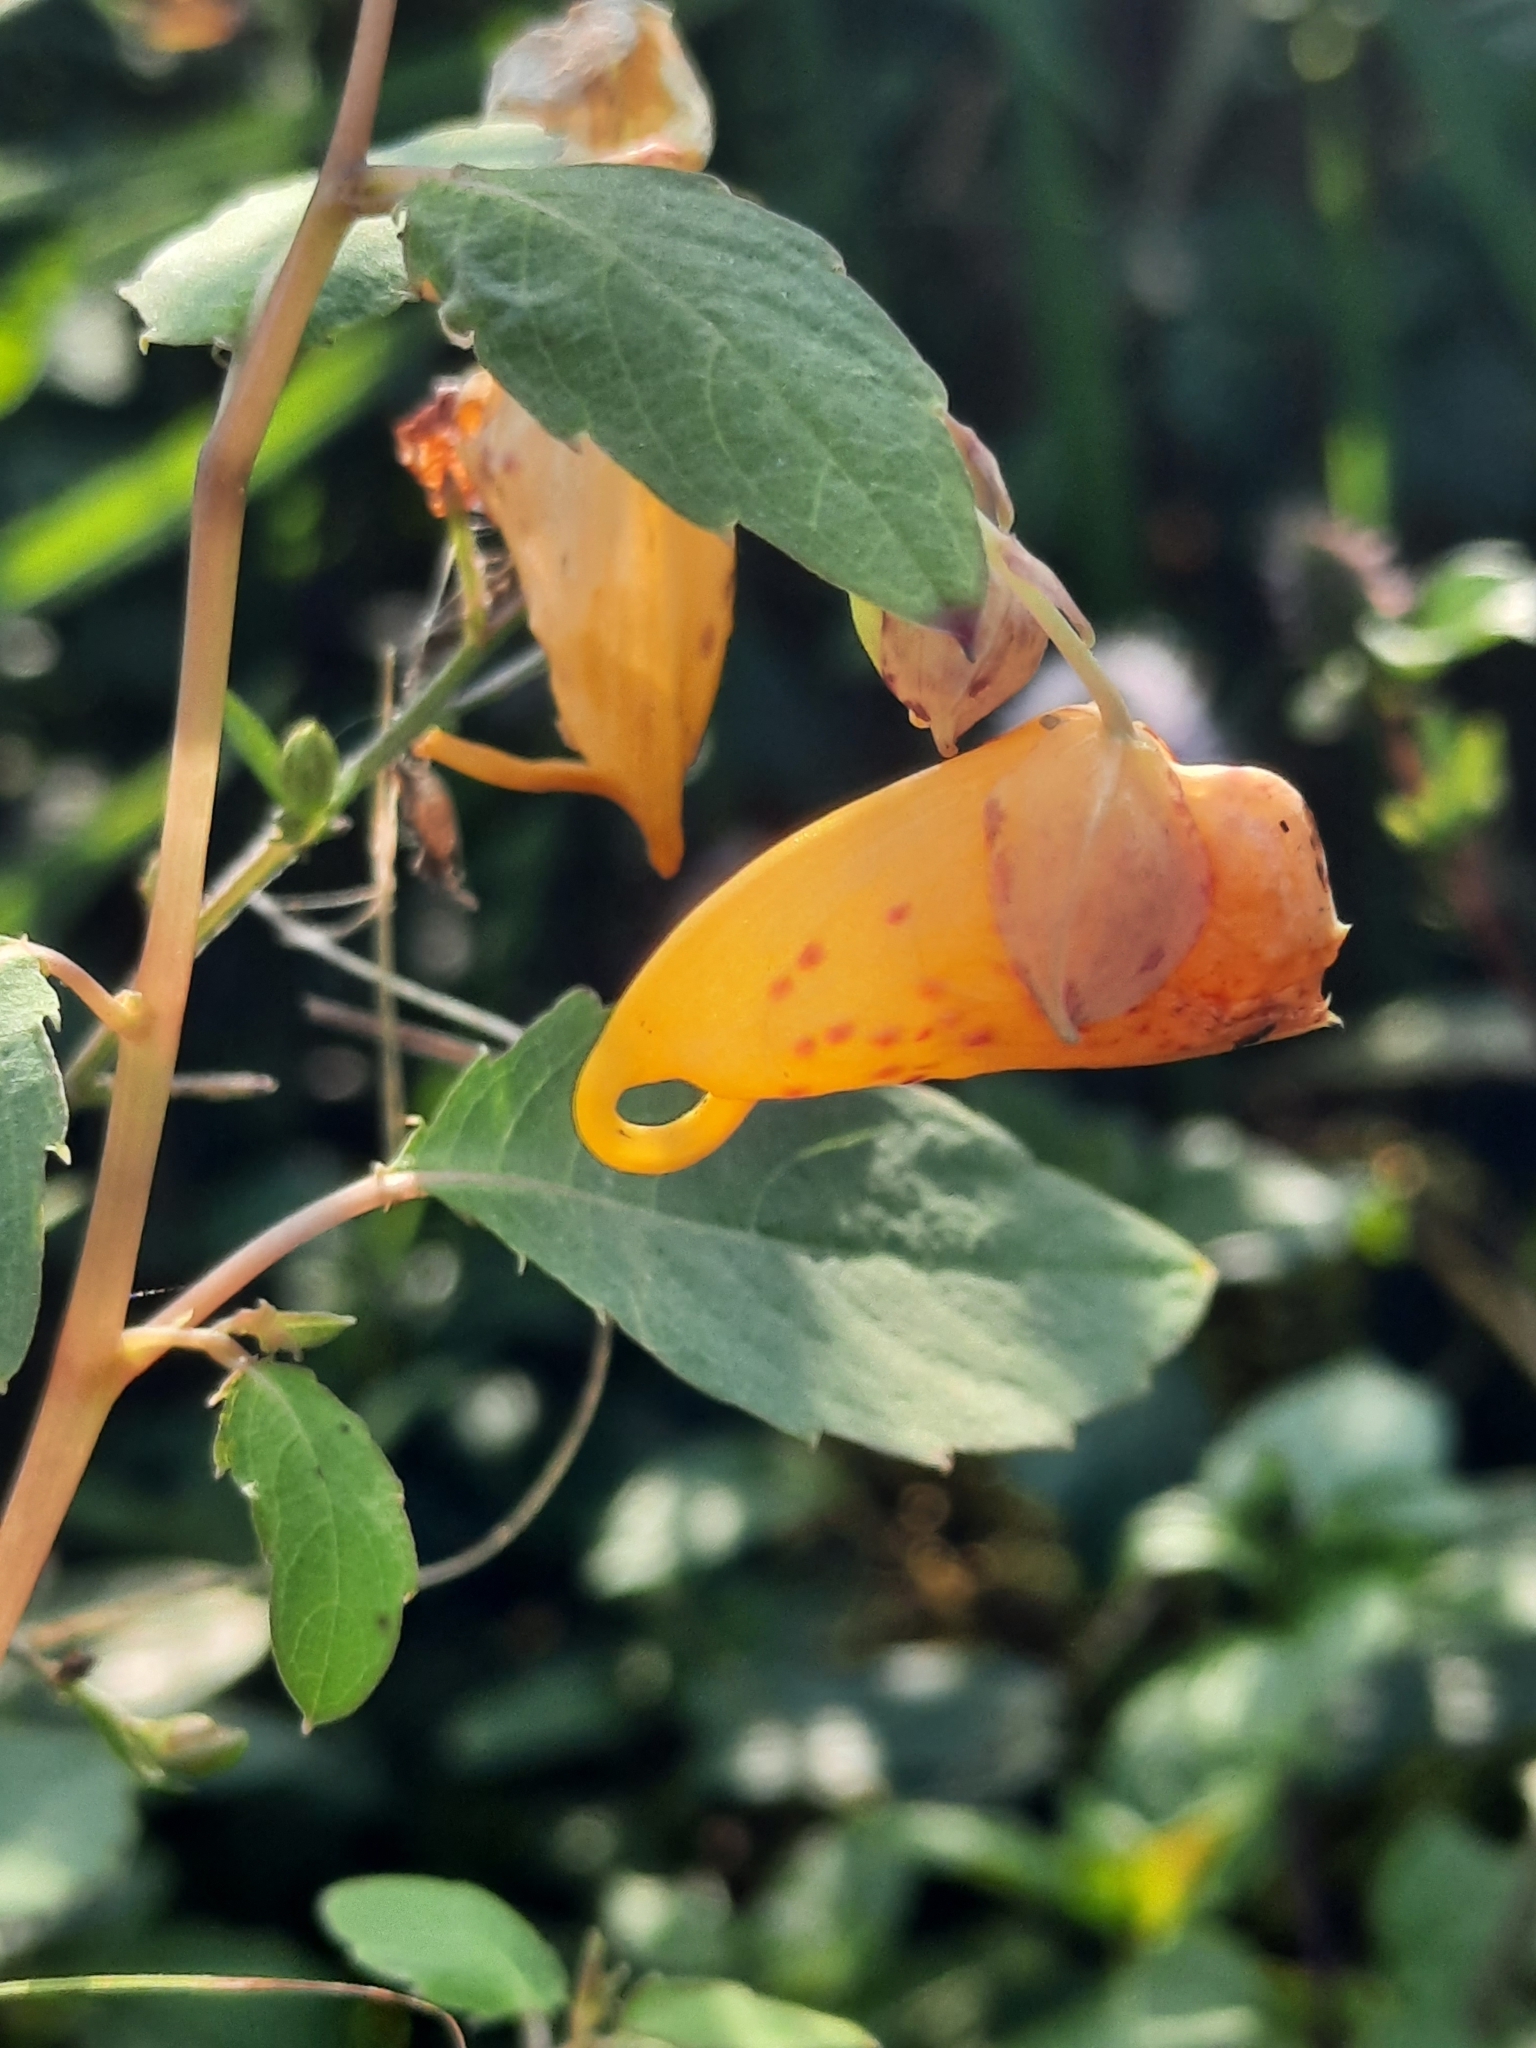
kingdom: Plantae
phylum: Tracheophyta
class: Magnoliopsida
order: Ericales
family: Balsaminaceae
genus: Impatiens
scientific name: Impatiens capensis
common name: Orange balsam
